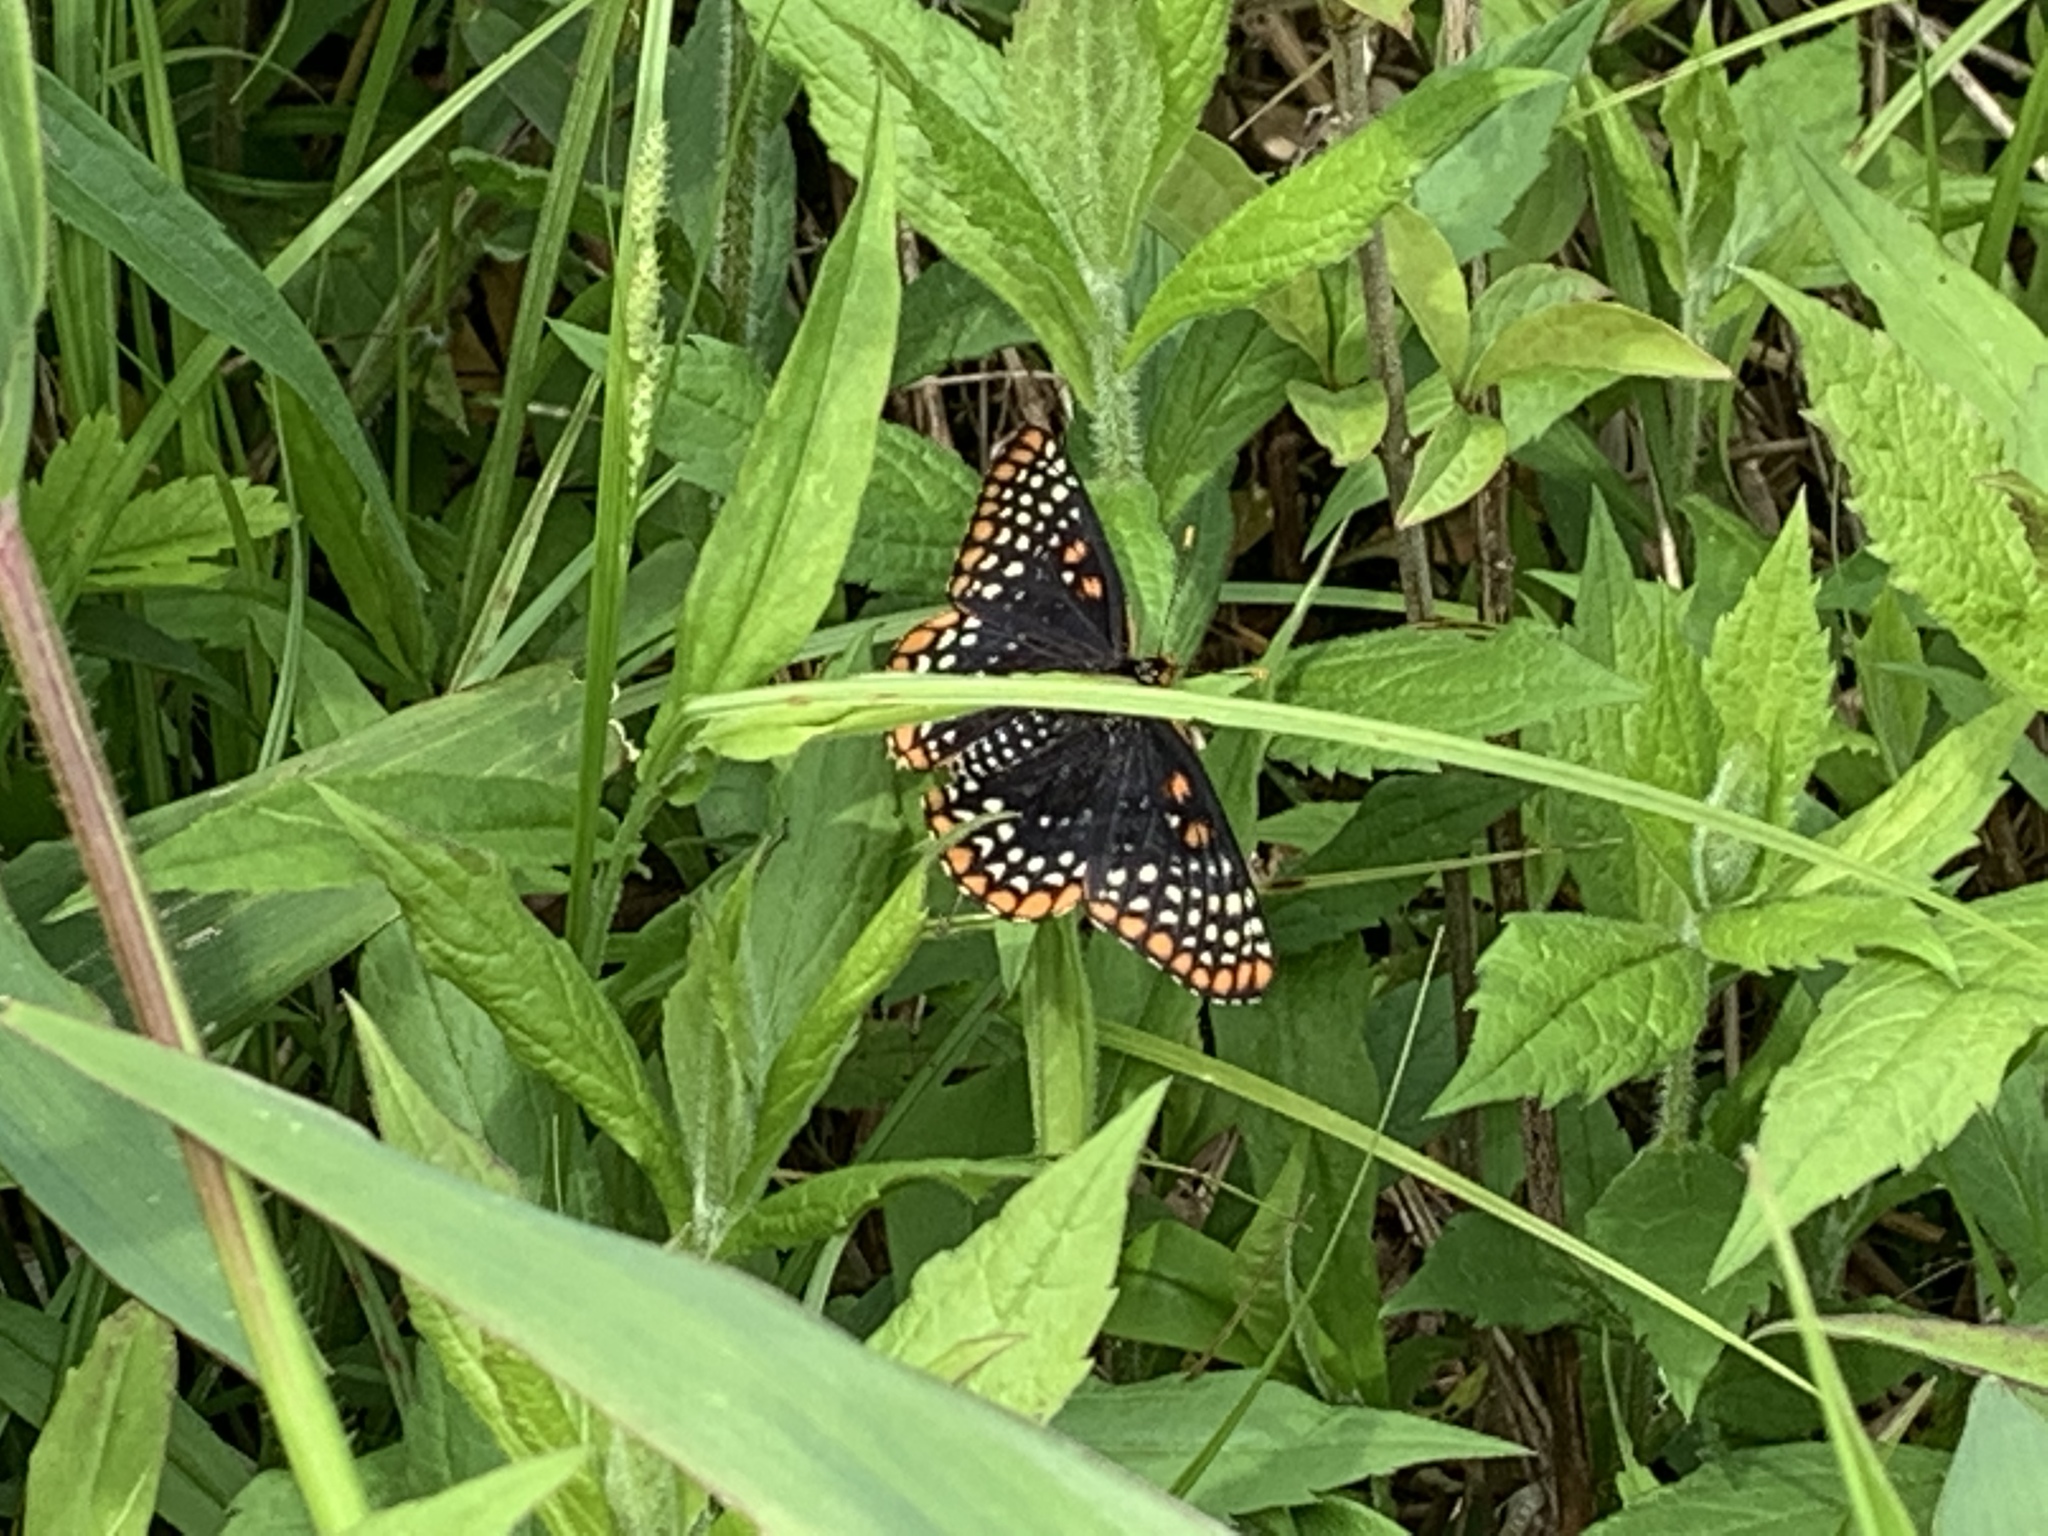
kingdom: Animalia
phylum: Arthropoda
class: Insecta
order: Lepidoptera
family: Nymphalidae
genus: Euphydryas
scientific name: Euphydryas phaeton
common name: Baltimore checkerspot
